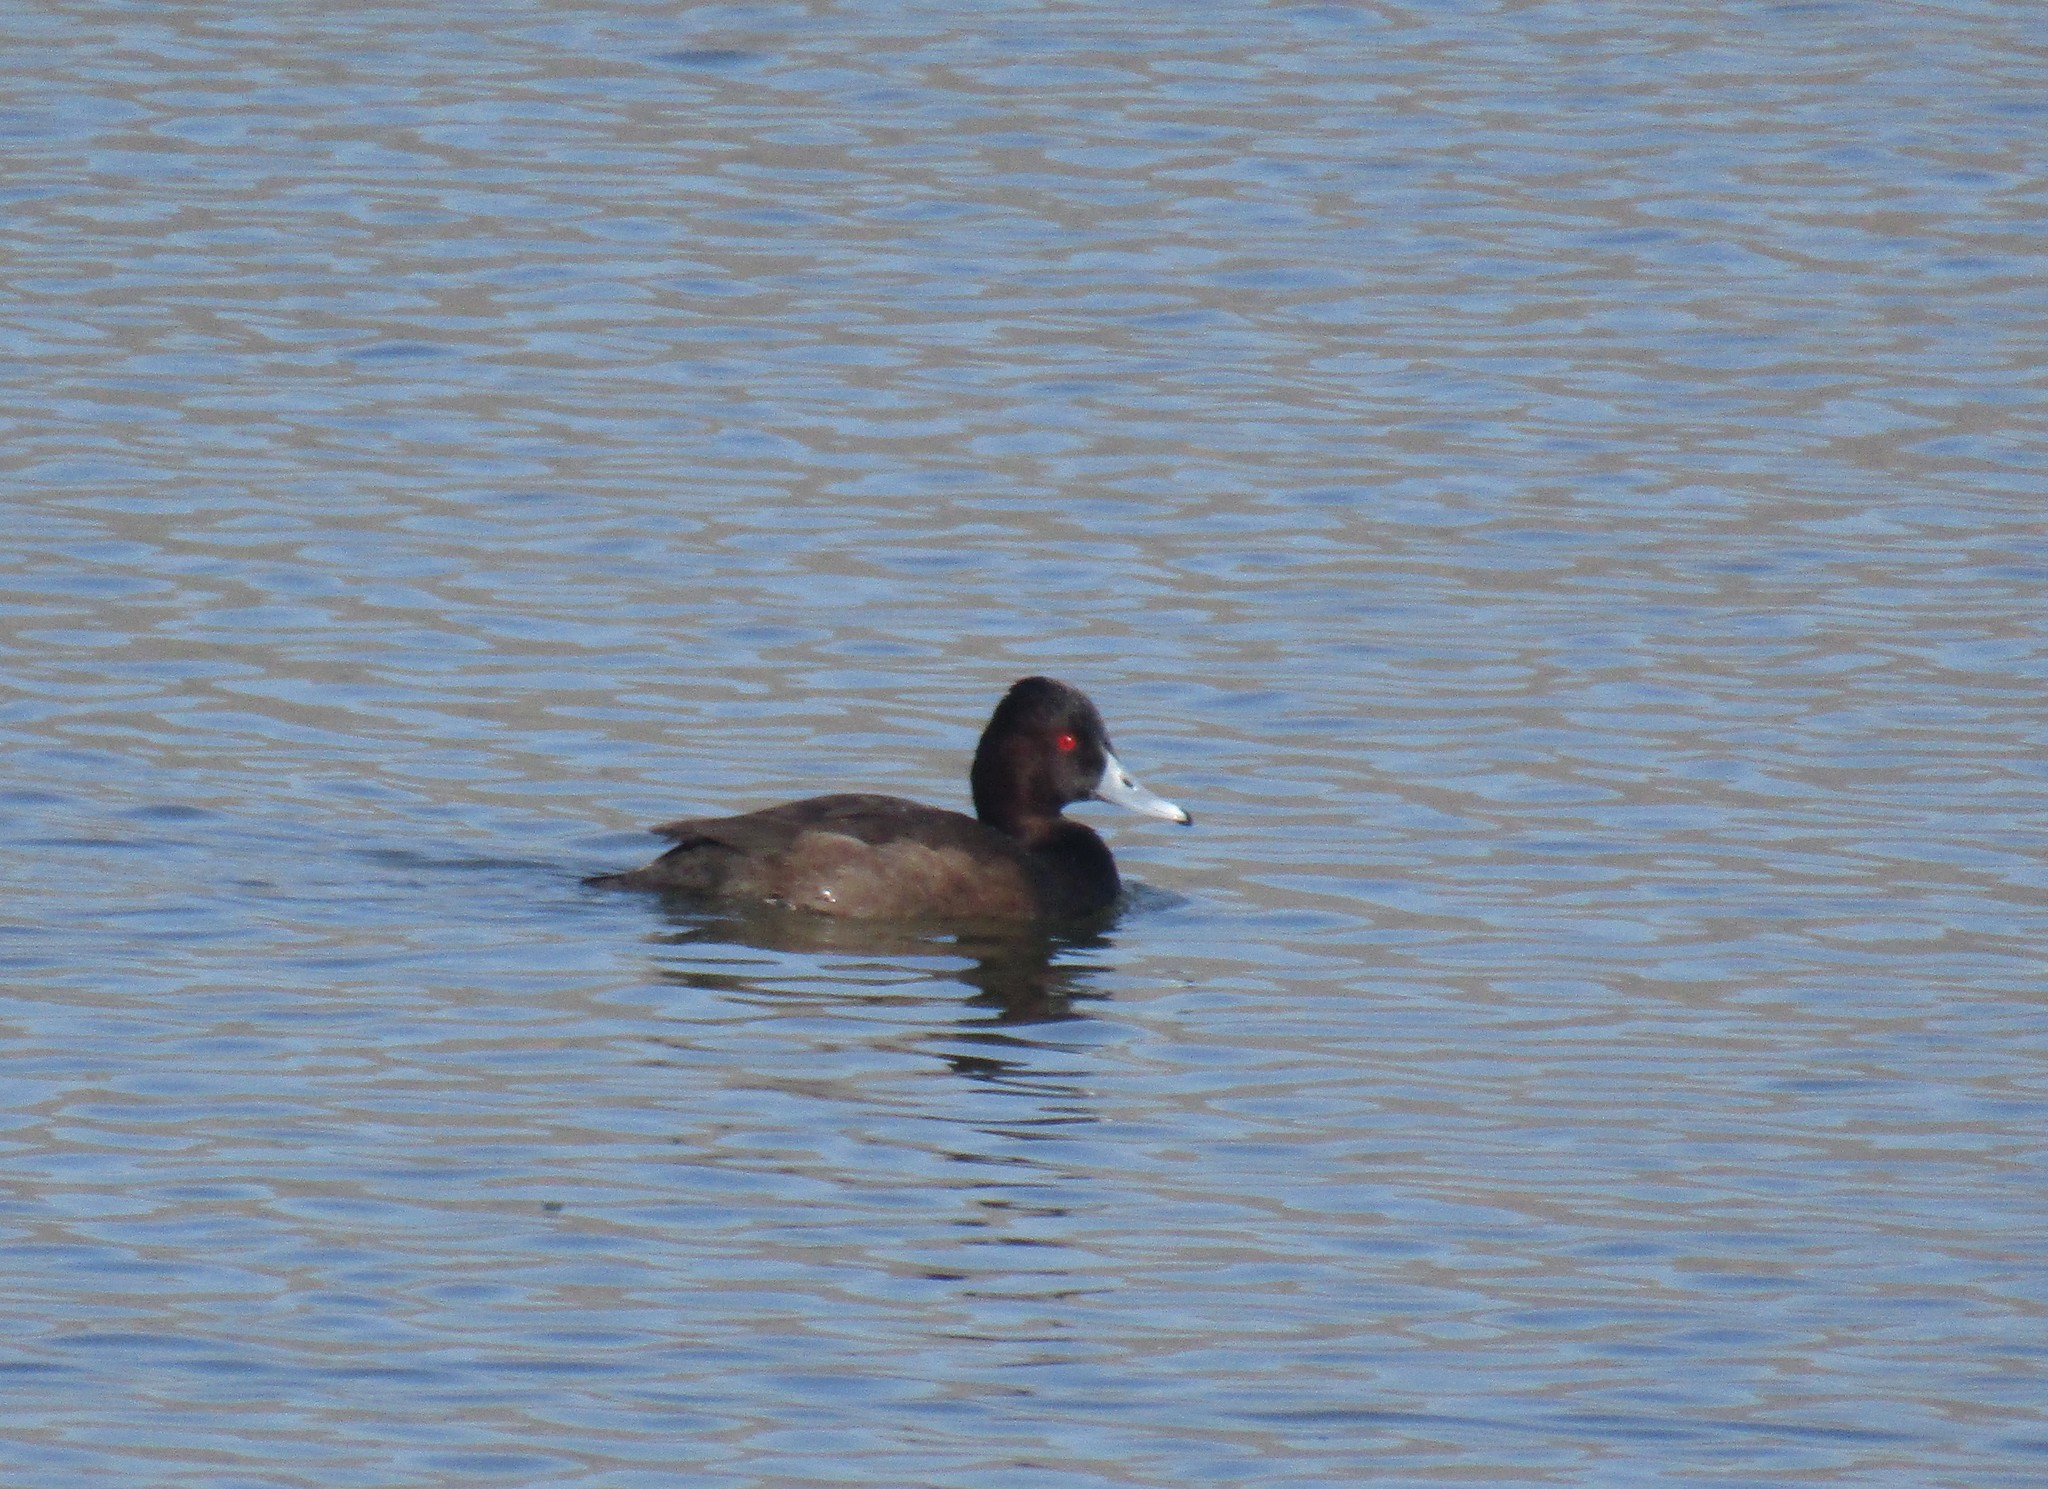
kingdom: Animalia
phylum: Chordata
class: Aves
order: Anseriformes
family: Anatidae
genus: Netta
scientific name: Netta erythrophthalma
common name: Southern pochard
